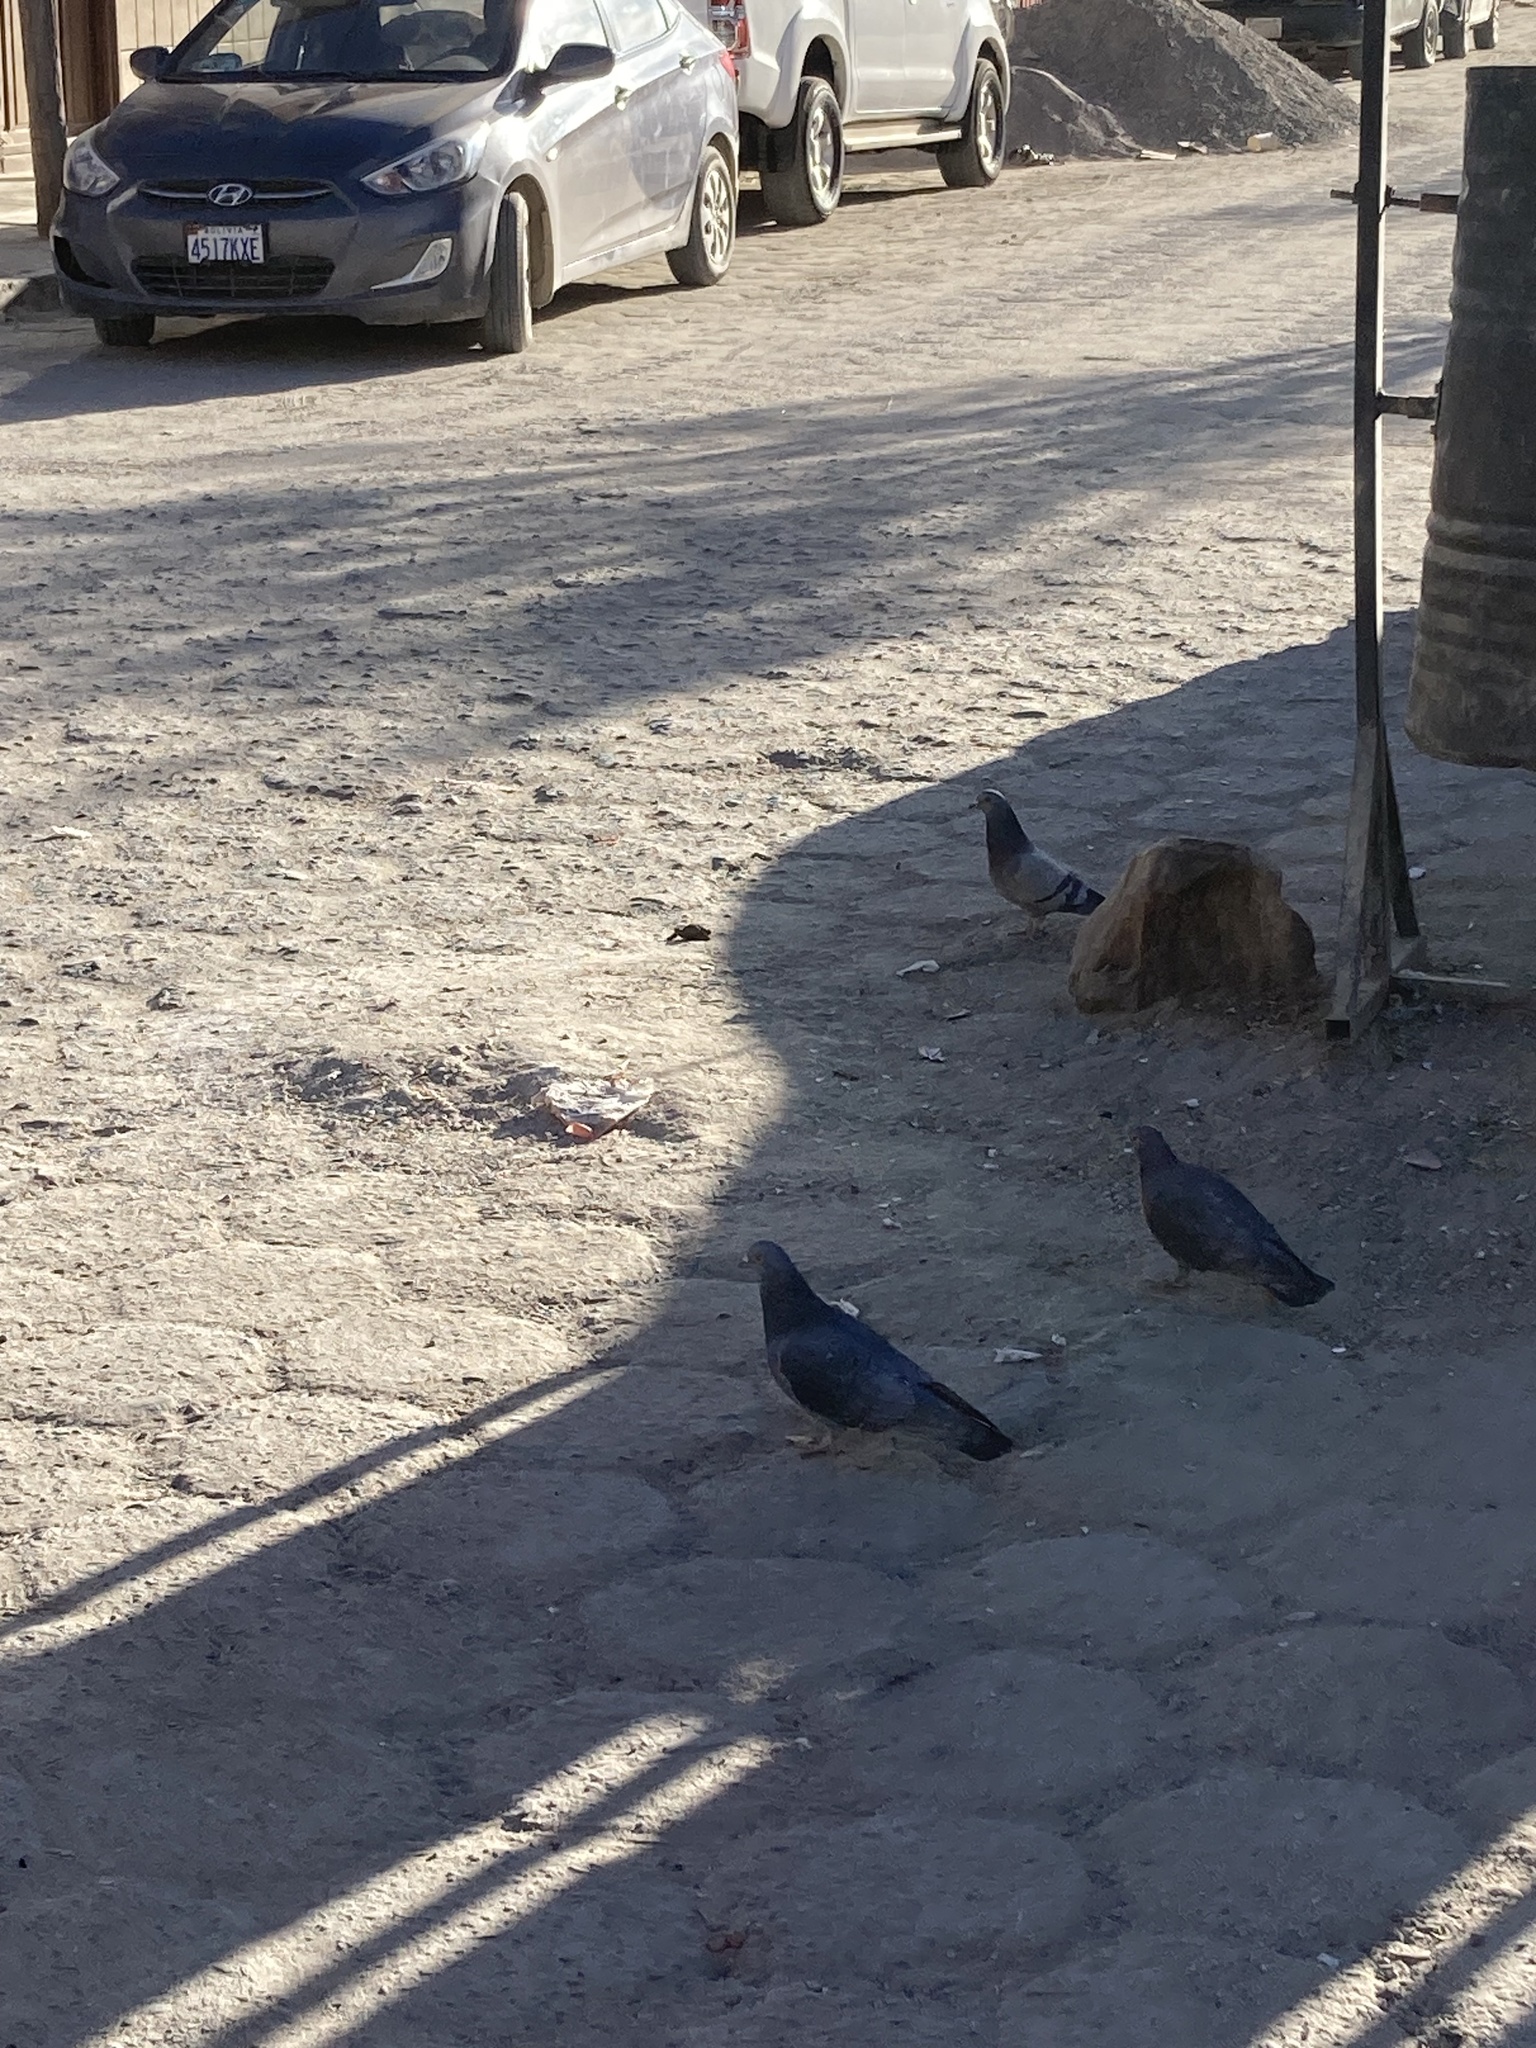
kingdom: Animalia
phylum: Chordata
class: Aves
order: Columbiformes
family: Columbidae
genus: Columba
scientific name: Columba livia
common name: Rock pigeon
